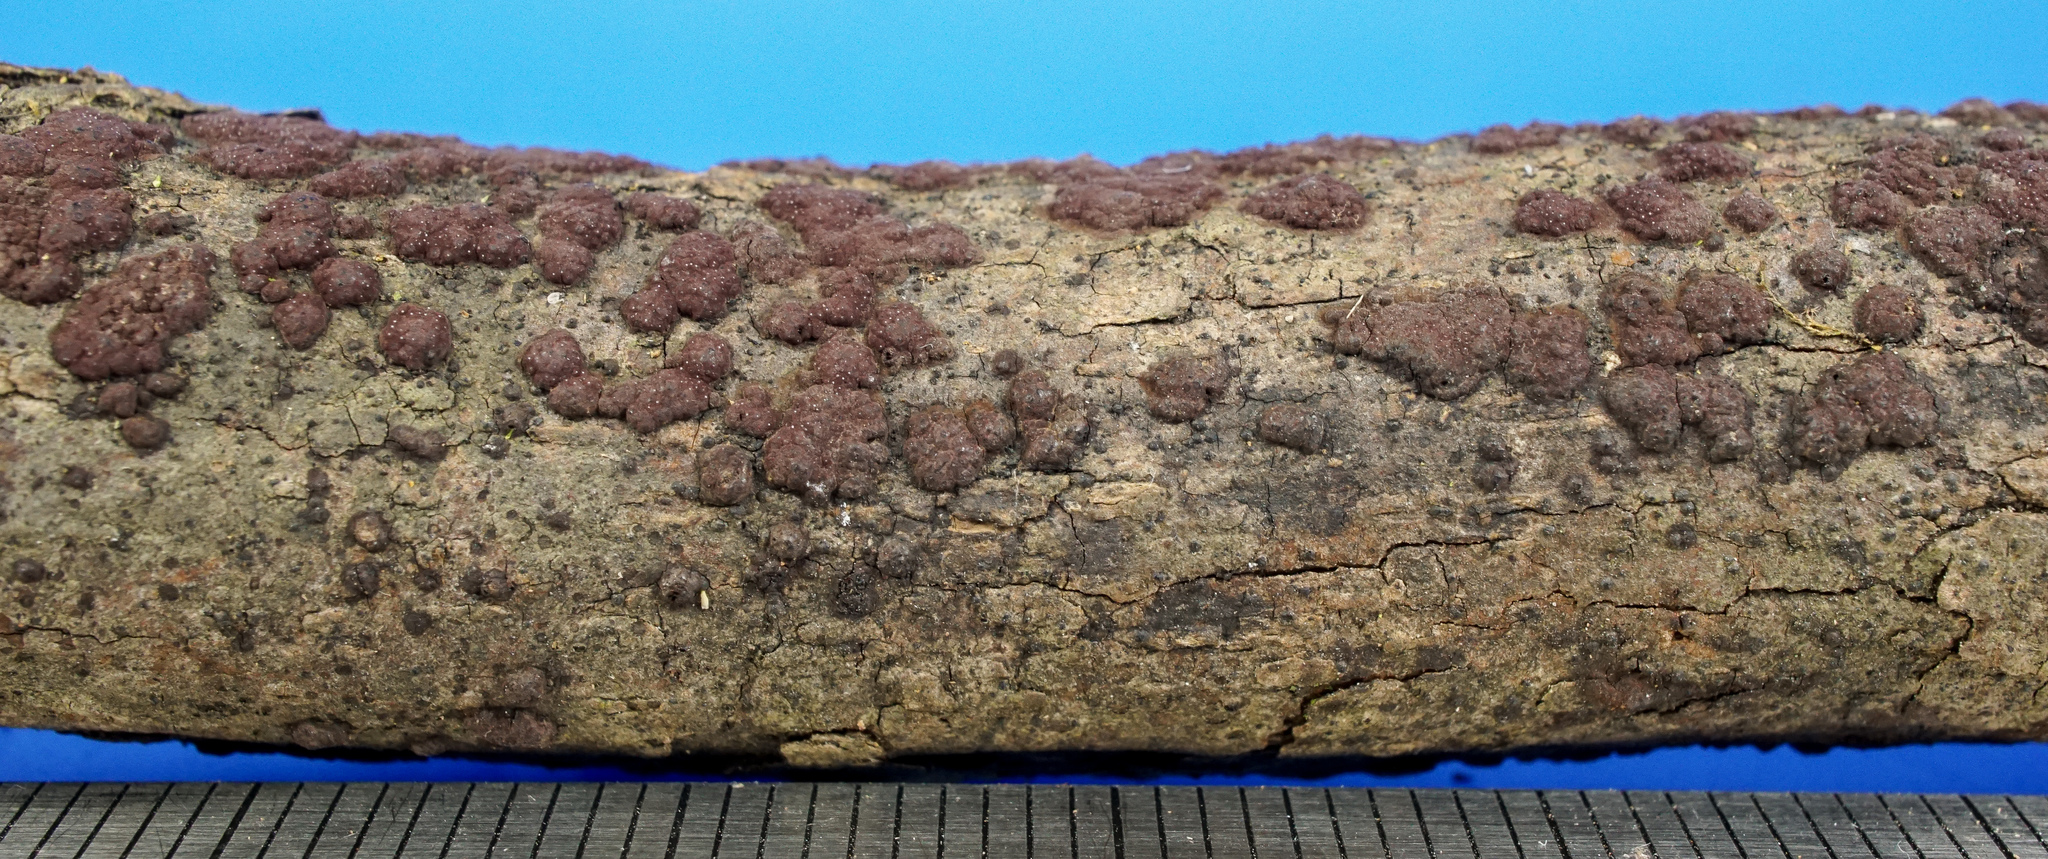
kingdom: Fungi
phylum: Ascomycota
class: Sordariomycetes
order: Xylariales
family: Hypoxylaceae
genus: Hypoxylon
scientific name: Hypoxylon perforatum
